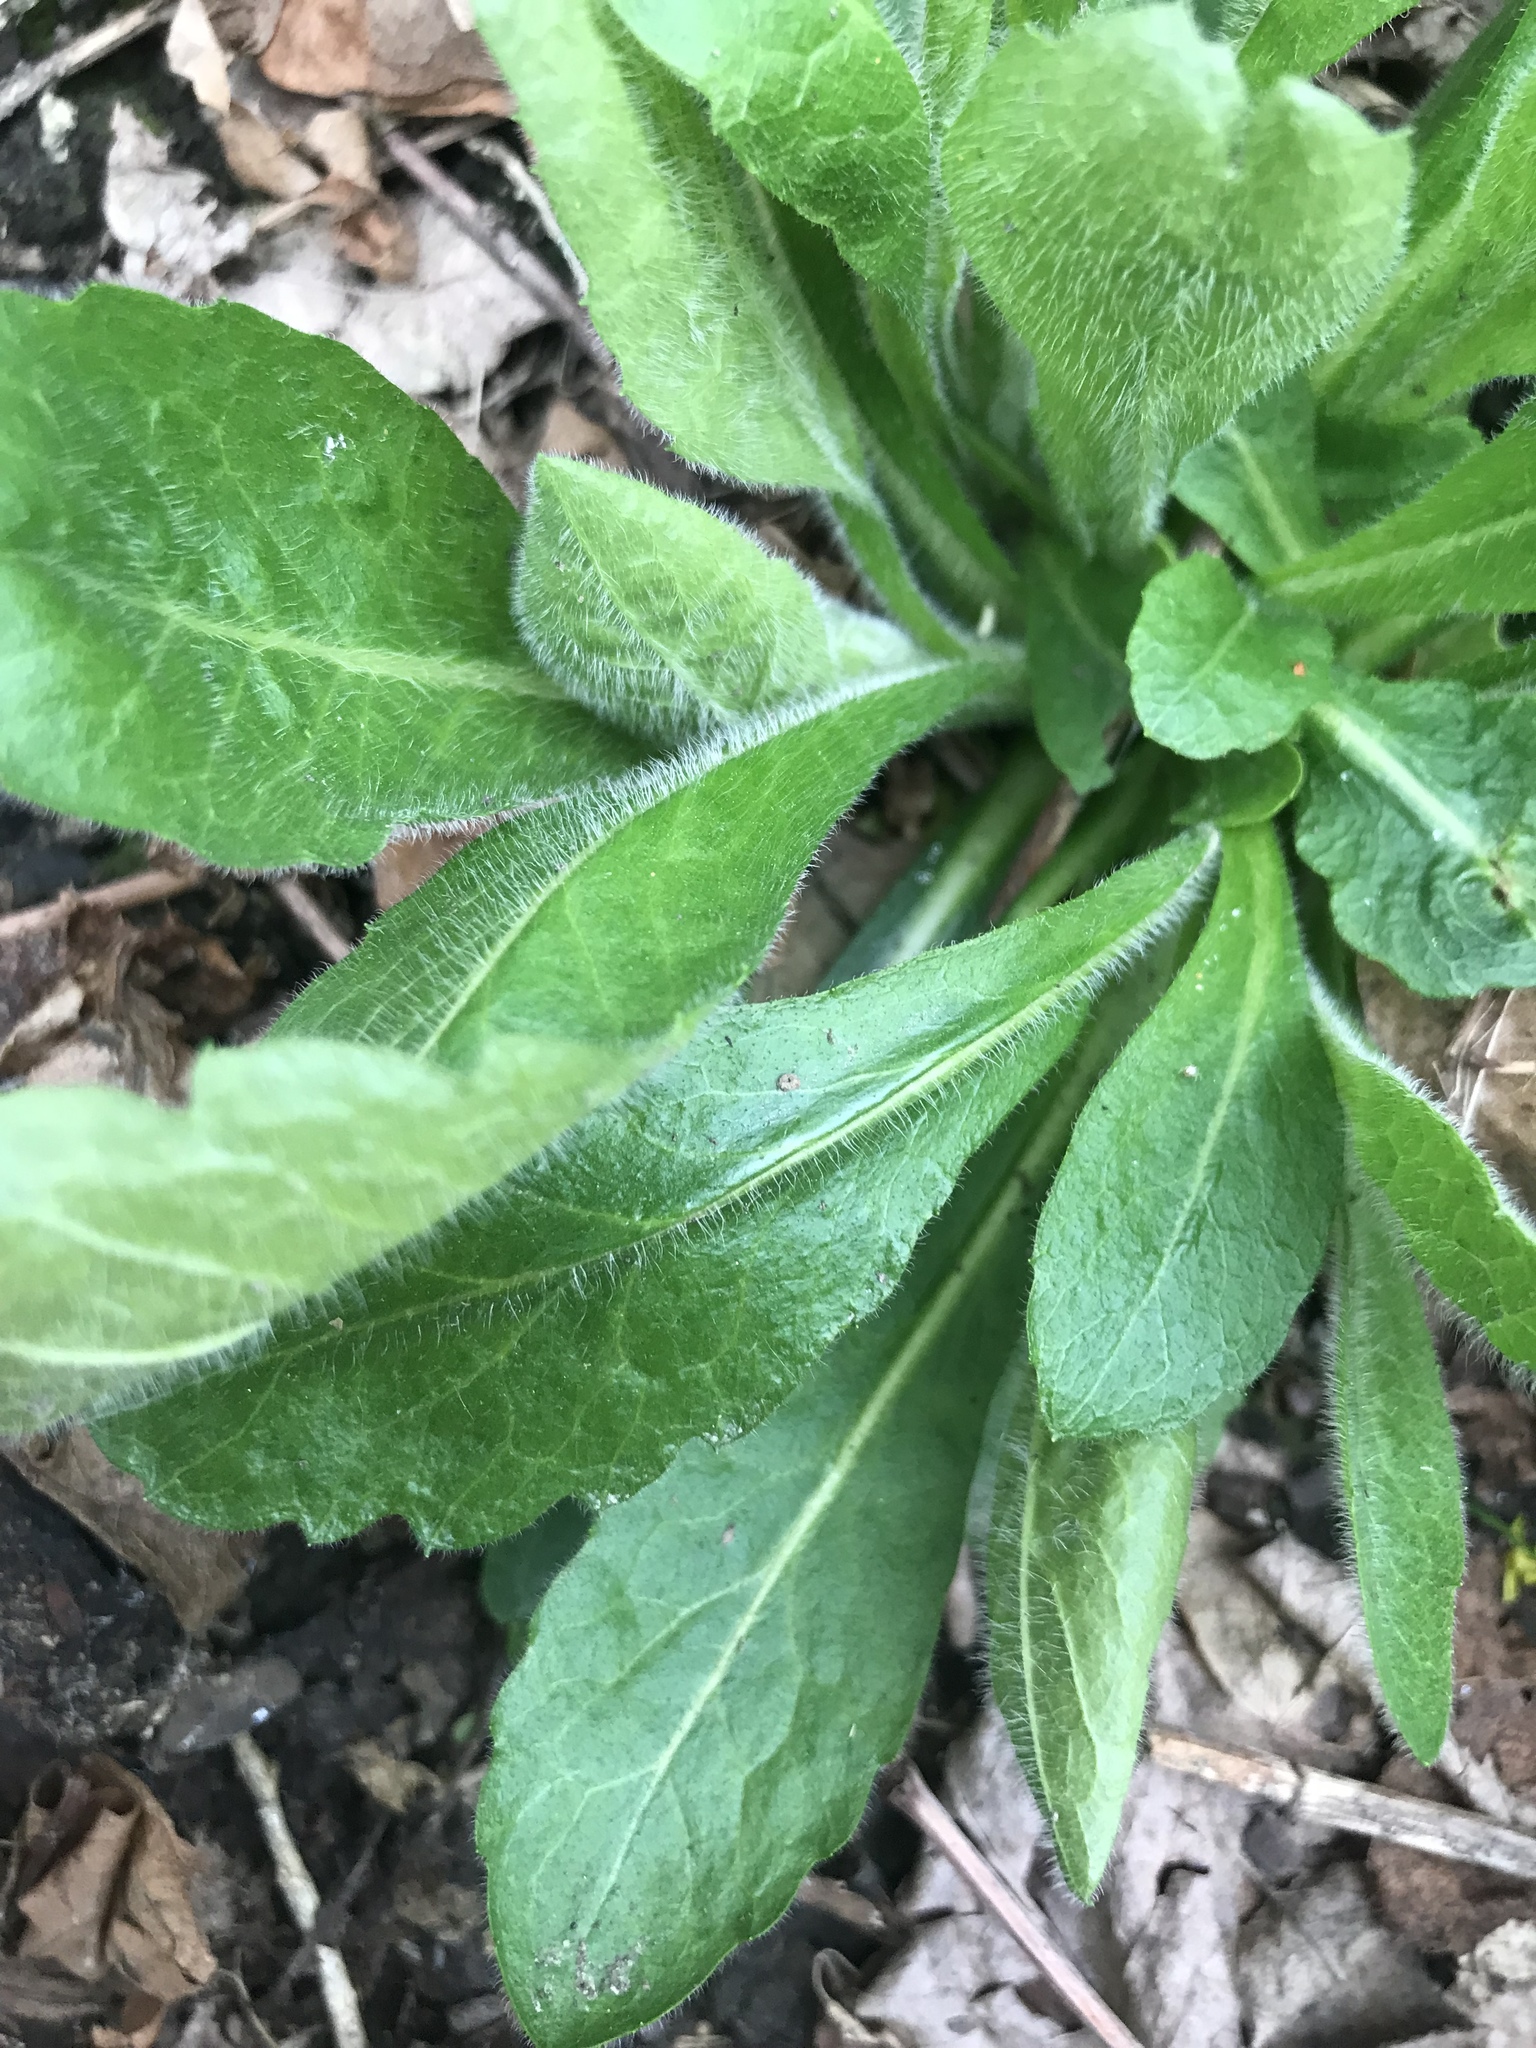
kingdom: Plantae
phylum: Tracheophyta
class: Magnoliopsida
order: Asterales
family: Asteraceae
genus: Erigeron
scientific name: Erigeron philadelphicus
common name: Robin's-plantain
